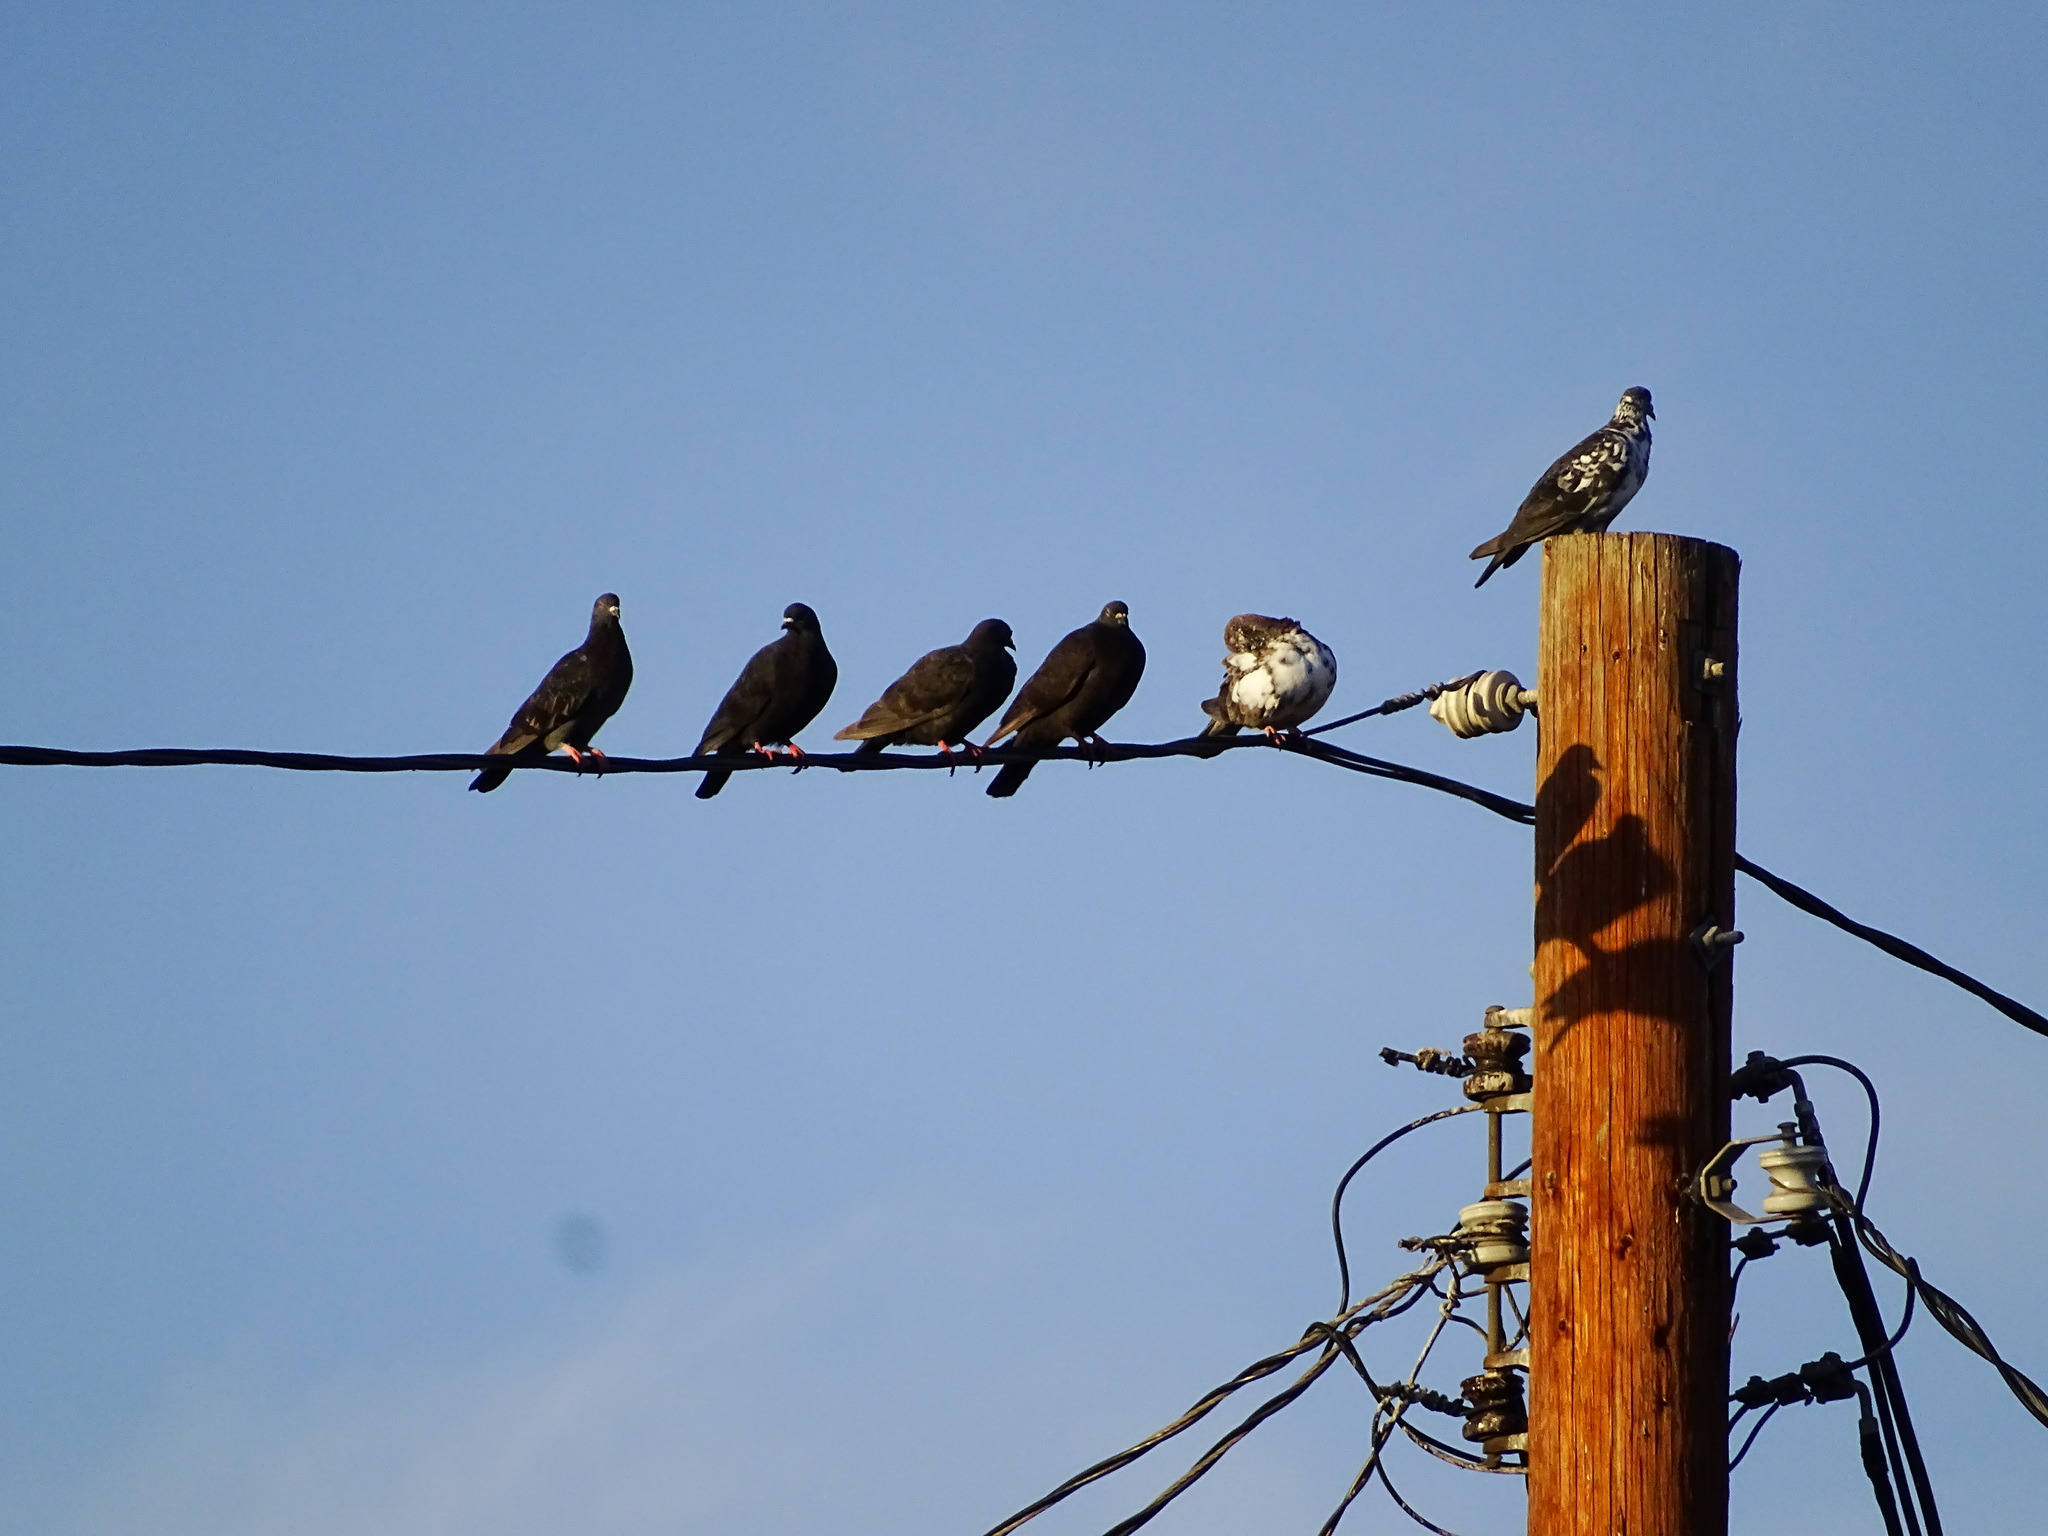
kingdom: Animalia
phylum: Chordata
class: Aves
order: Columbiformes
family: Columbidae
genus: Columba
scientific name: Columba livia
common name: Rock pigeon
